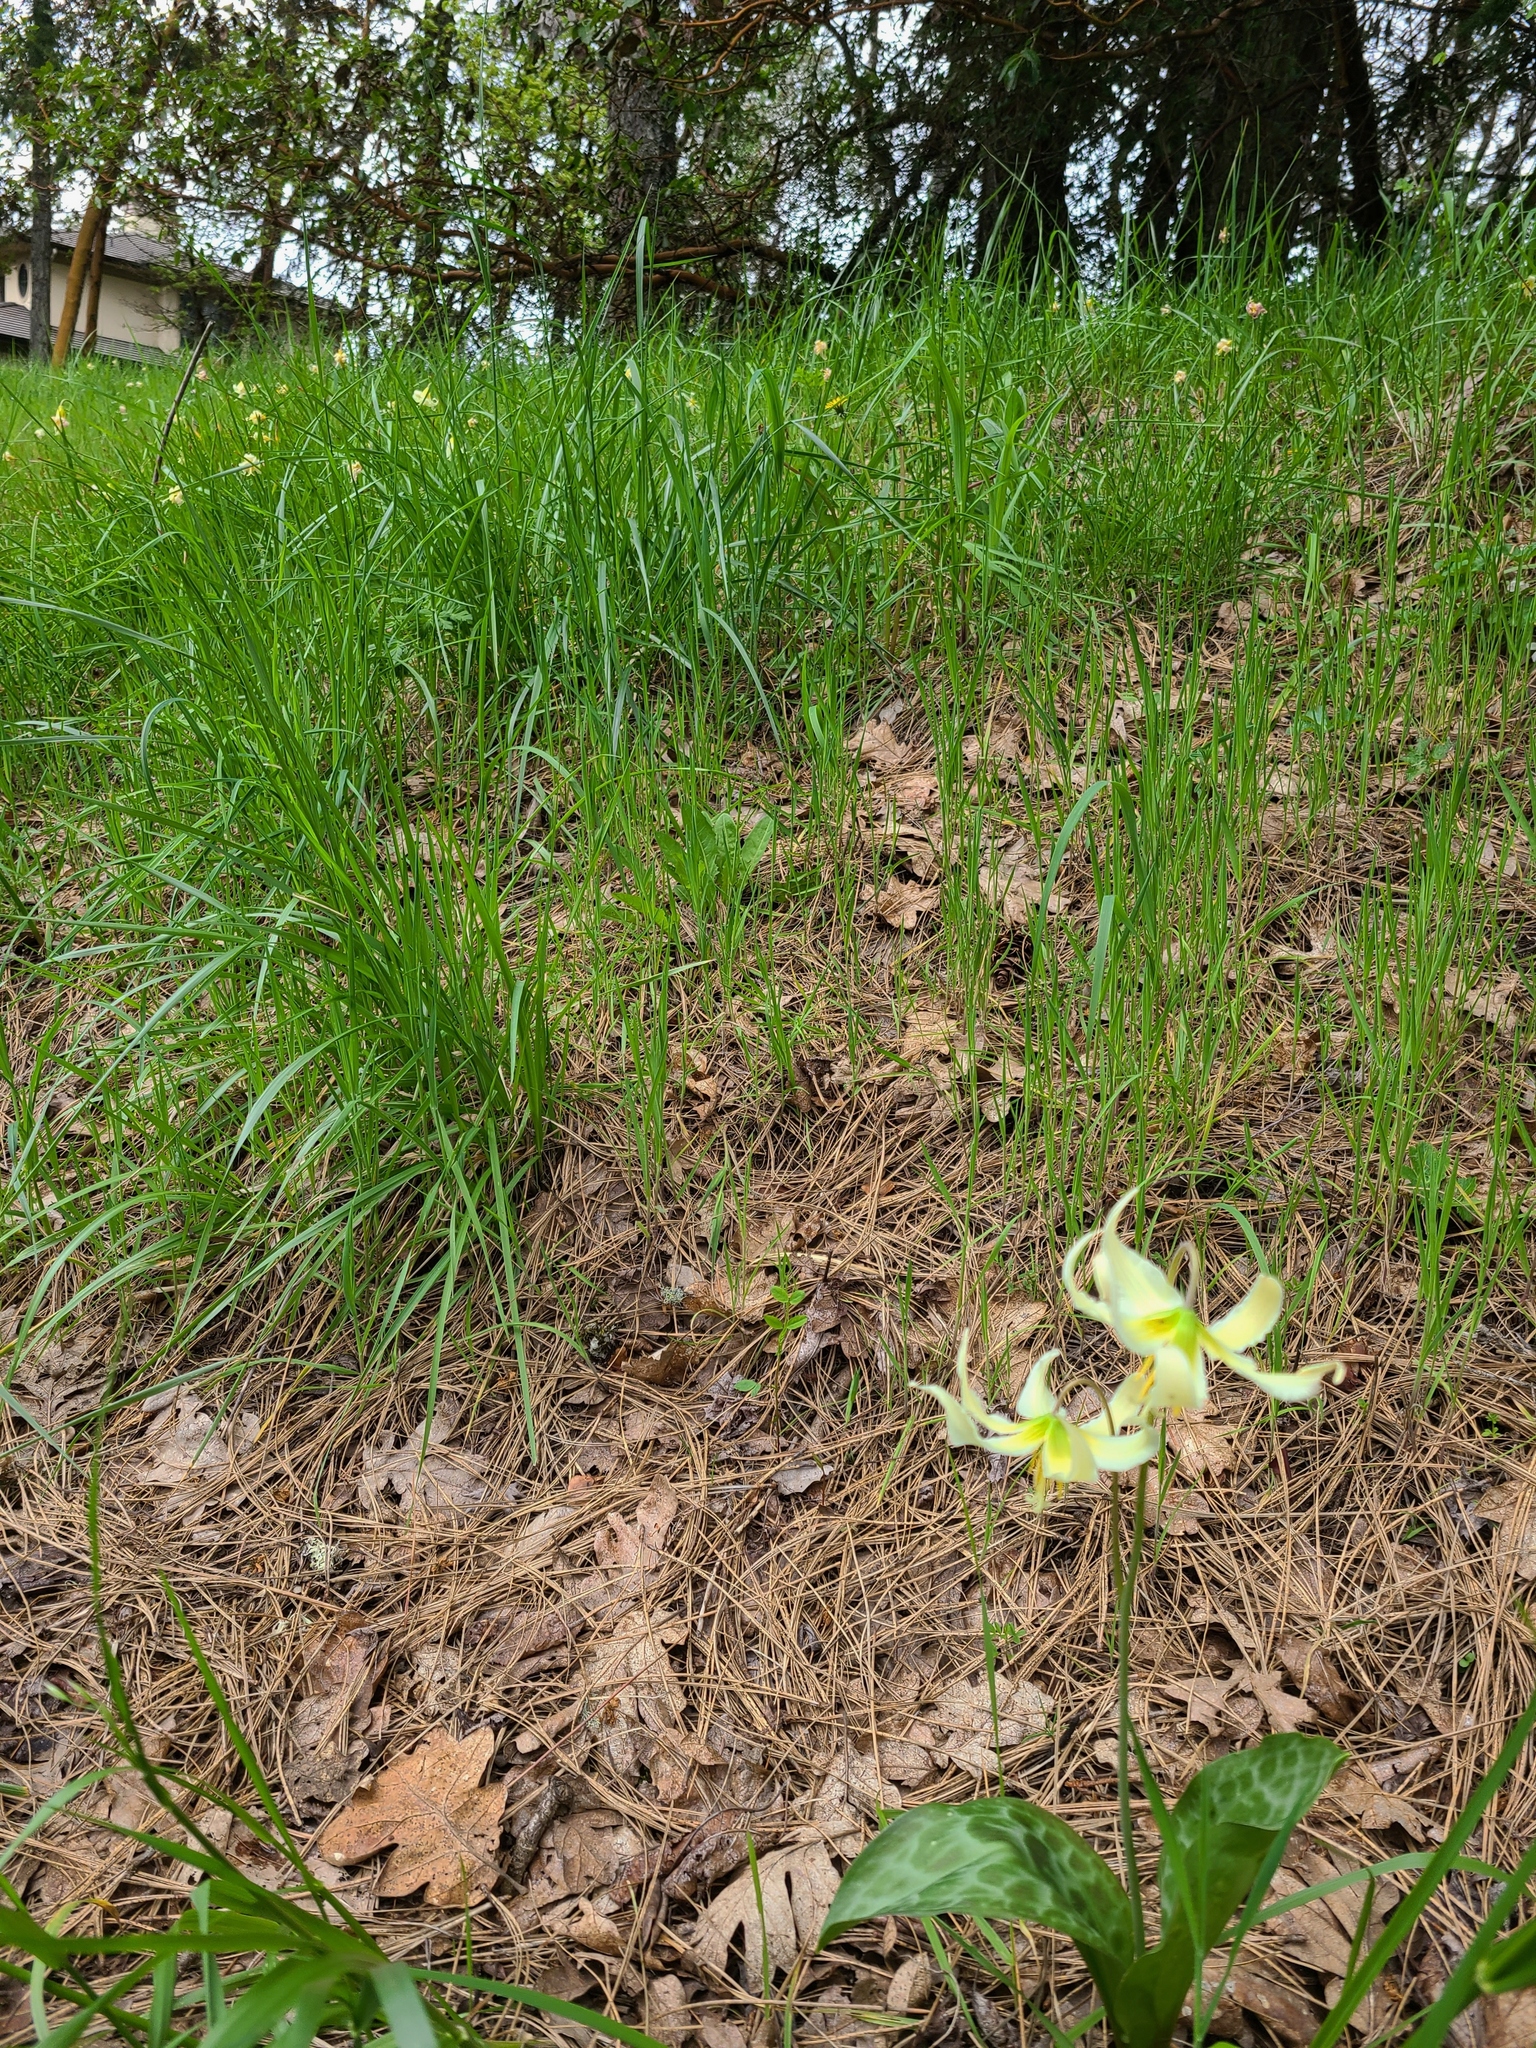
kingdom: Plantae
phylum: Tracheophyta
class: Liliopsida
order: Liliales
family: Liliaceae
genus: Erythronium
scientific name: Erythronium oregonum
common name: Giant adder's-tongue
